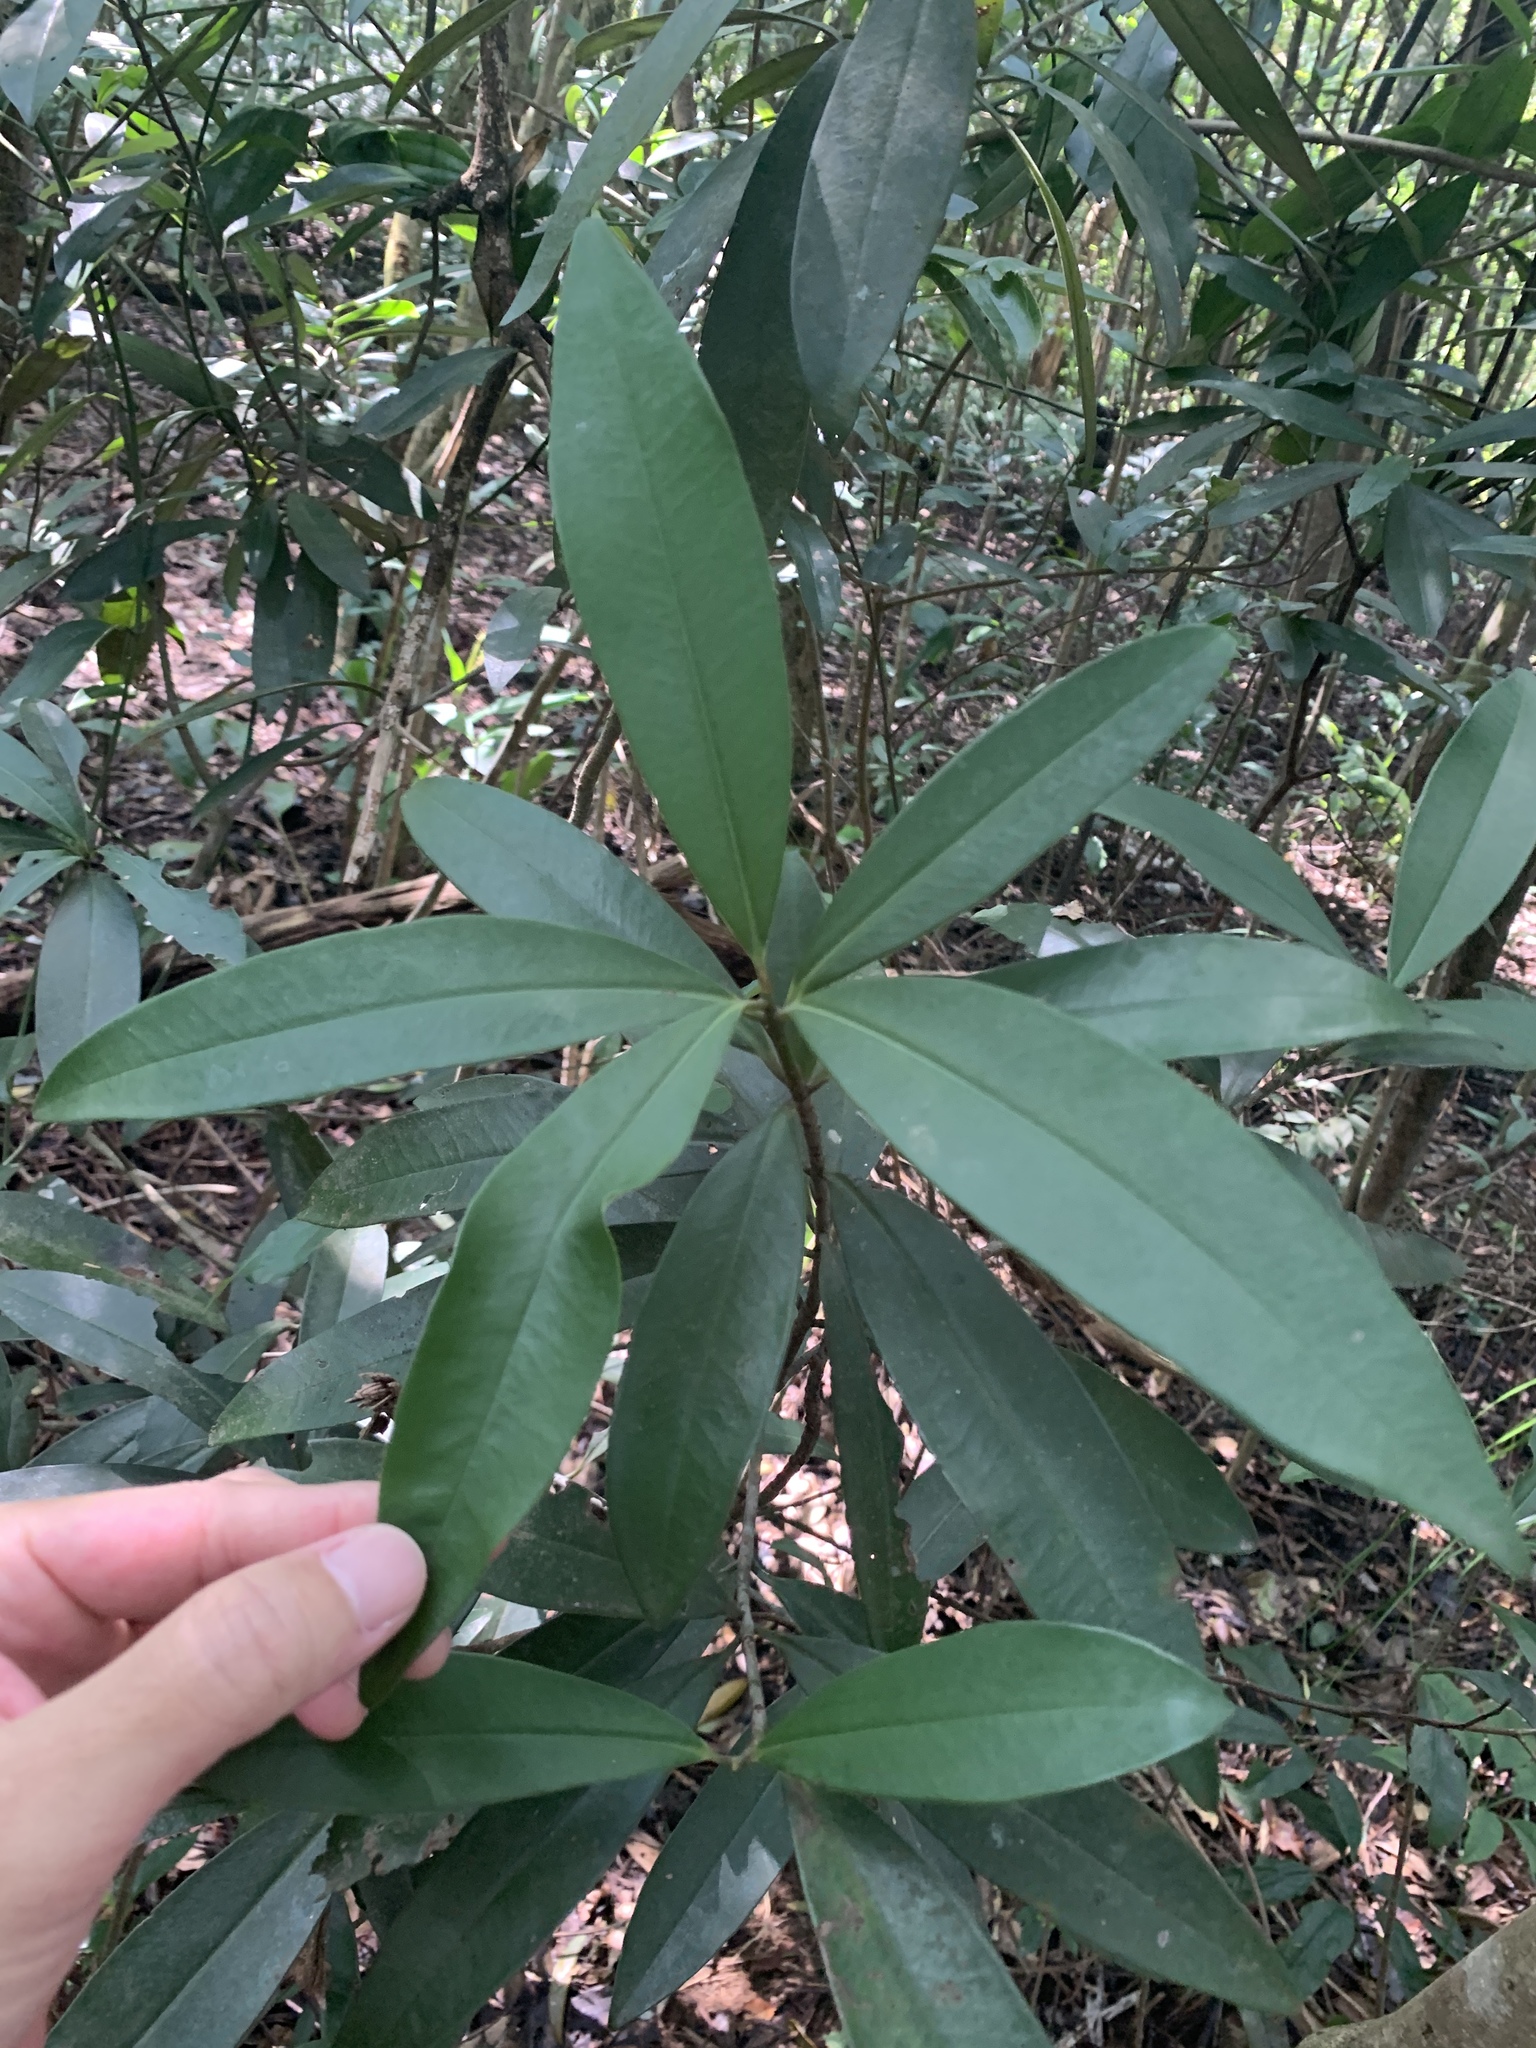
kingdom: Plantae
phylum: Tracheophyta
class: Magnoliopsida
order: Ericales
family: Primulaceae
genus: Myrsine
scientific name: Myrsine seguinii
